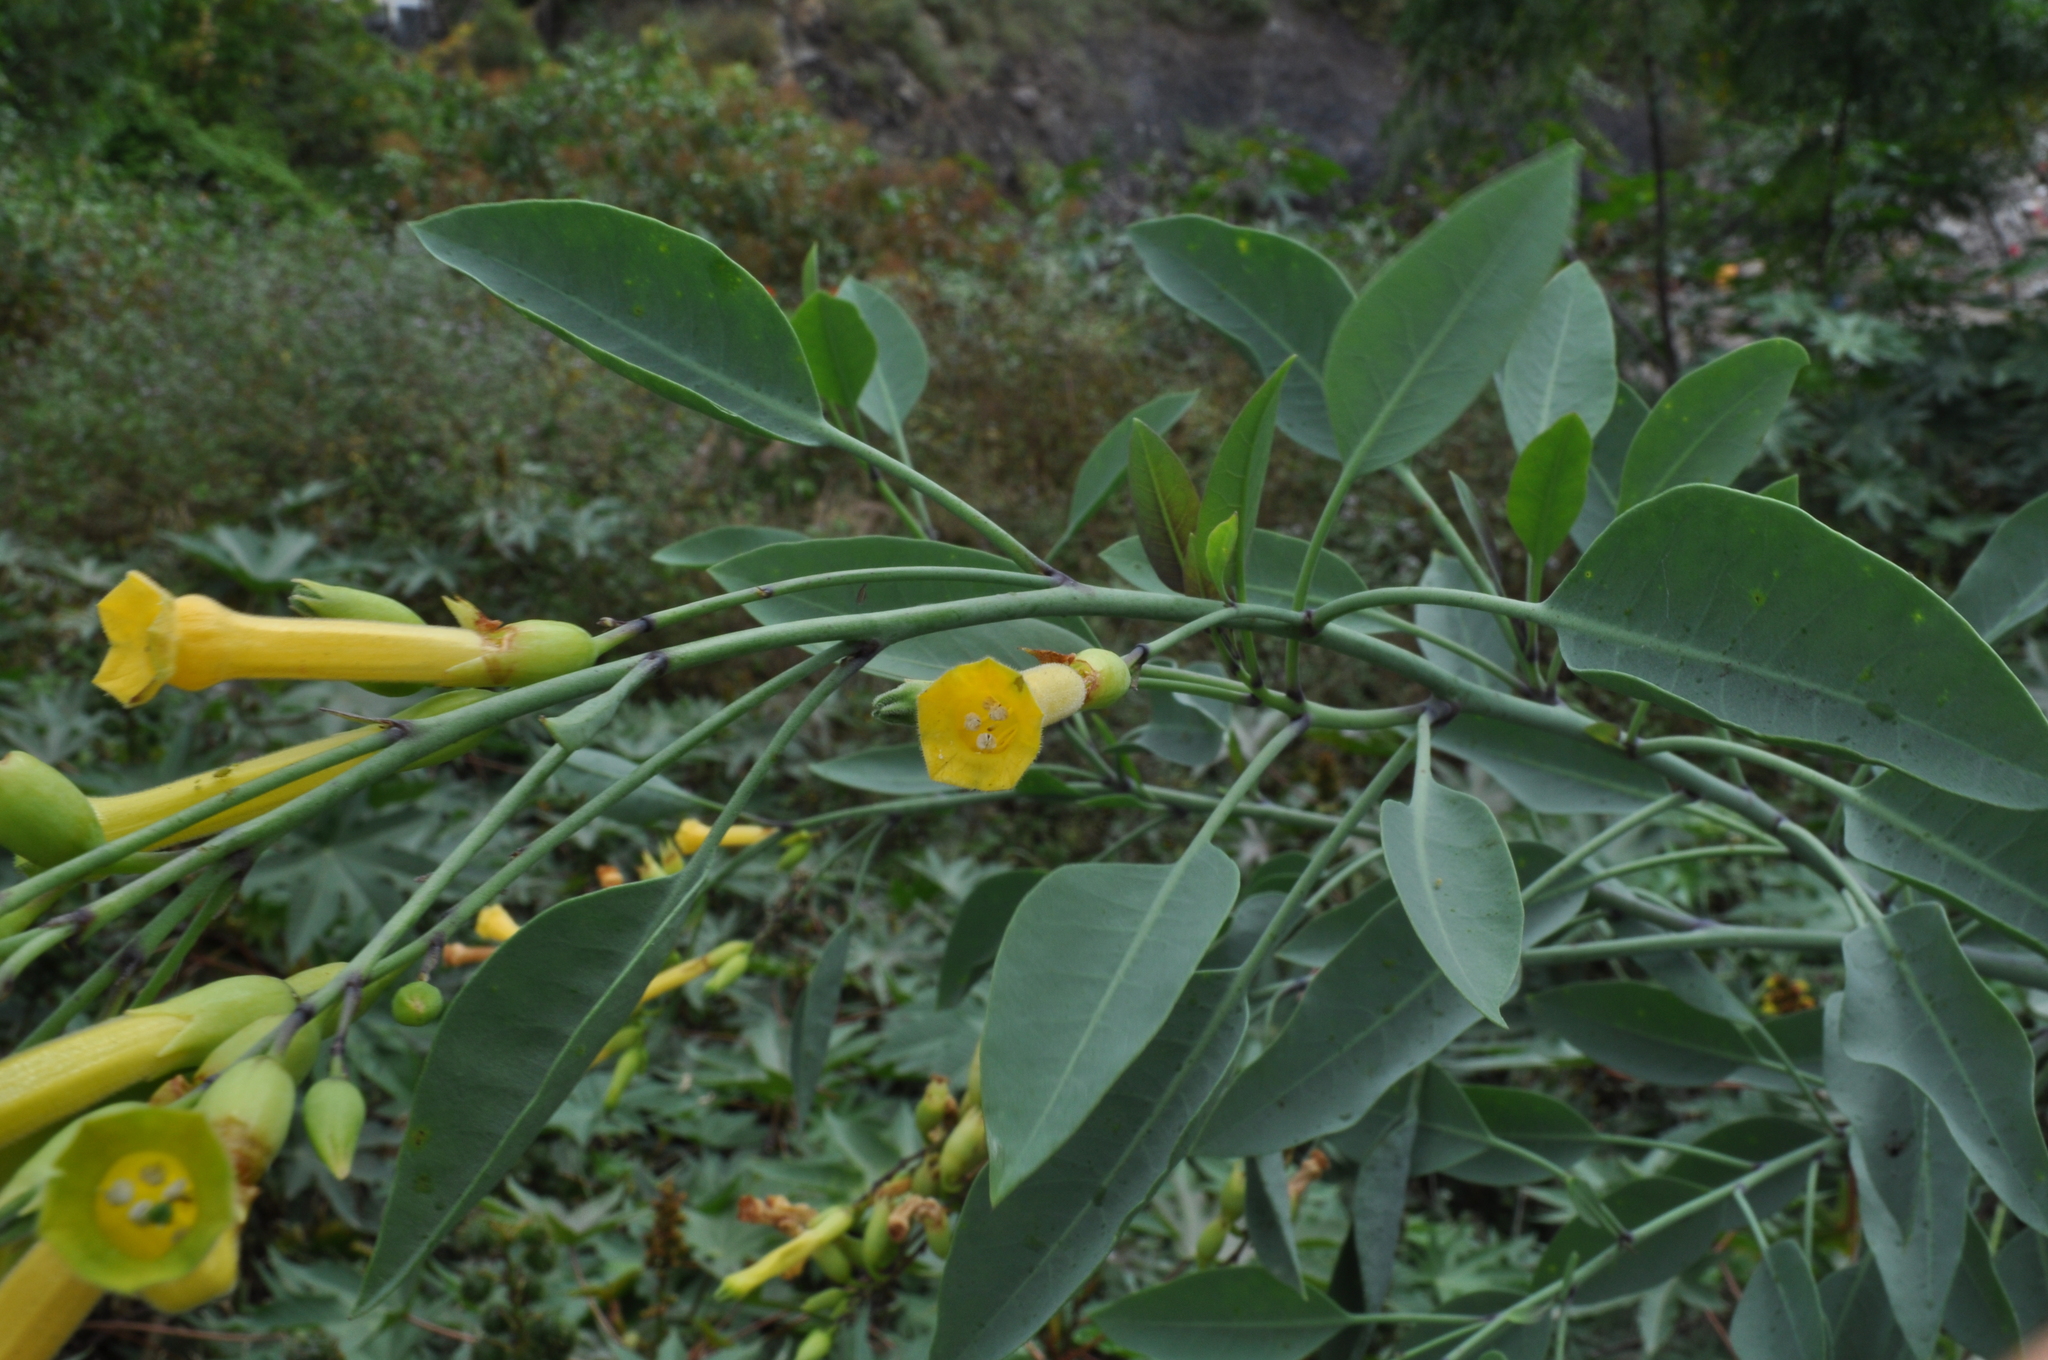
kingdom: Plantae
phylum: Tracheophyta
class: Magnoliopsida
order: Solanales
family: Solanaceae
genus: Nicotiana
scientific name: Nicotiana glauca
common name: Tree tobacco
